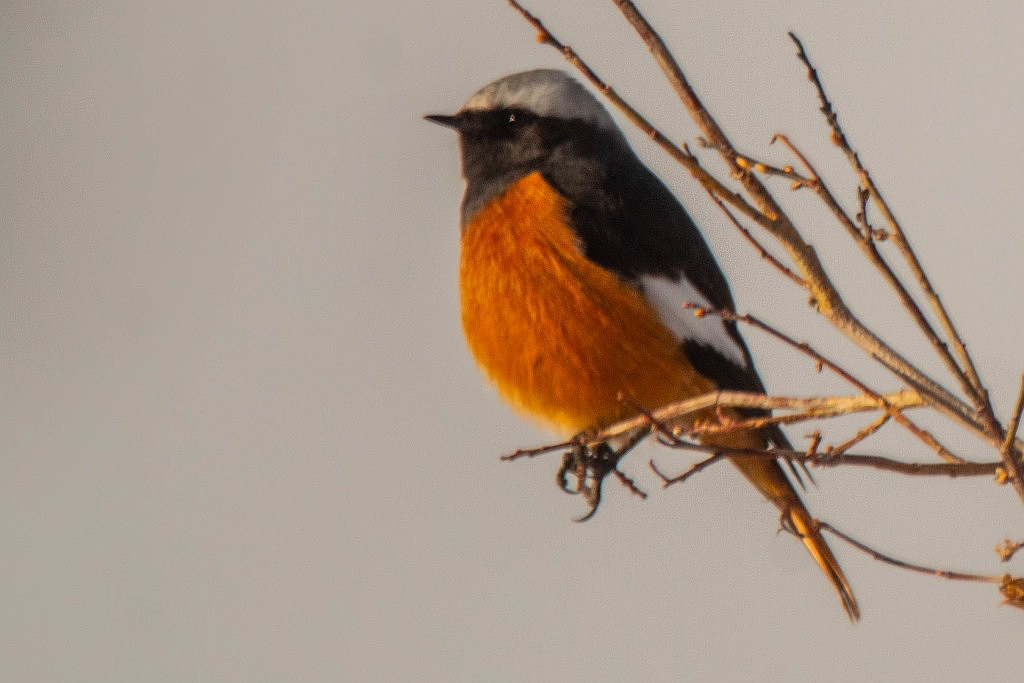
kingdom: Animalia
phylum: Chordata
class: Aves
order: Passeriformes
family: Muscicapidae
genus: Phoenicurus
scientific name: Phoenicurus erythrogastrus
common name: Güldenstädt's redstart
